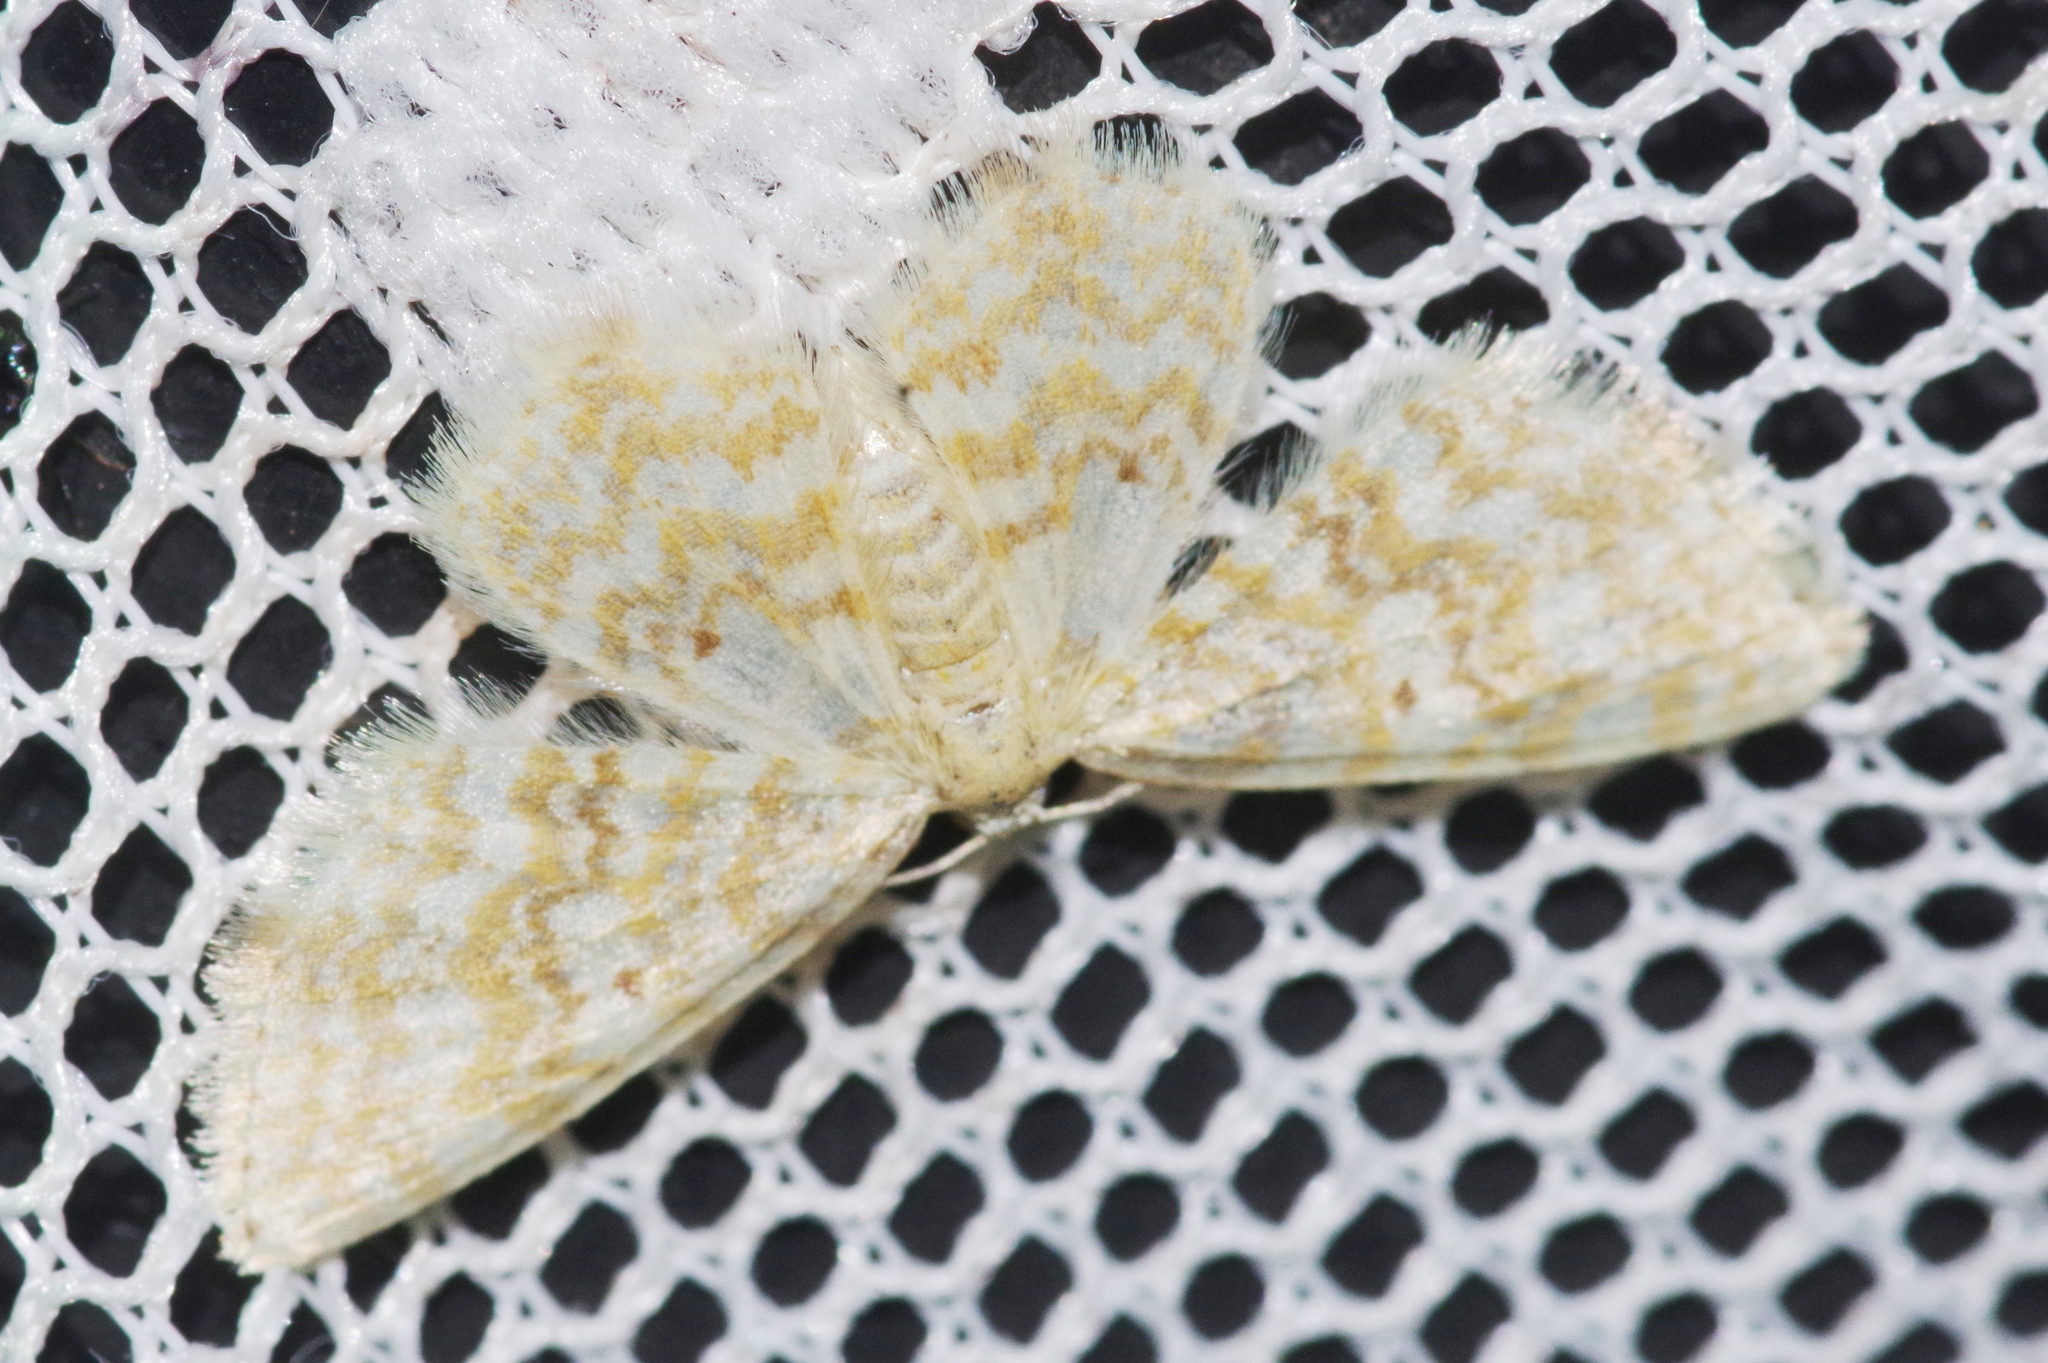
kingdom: Animalia
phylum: Arthropoda
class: Insecta
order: Lepidoptera
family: Geometridae
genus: Hydrelia
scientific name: Hydrelia flammeolaria
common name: Small yellow wave
